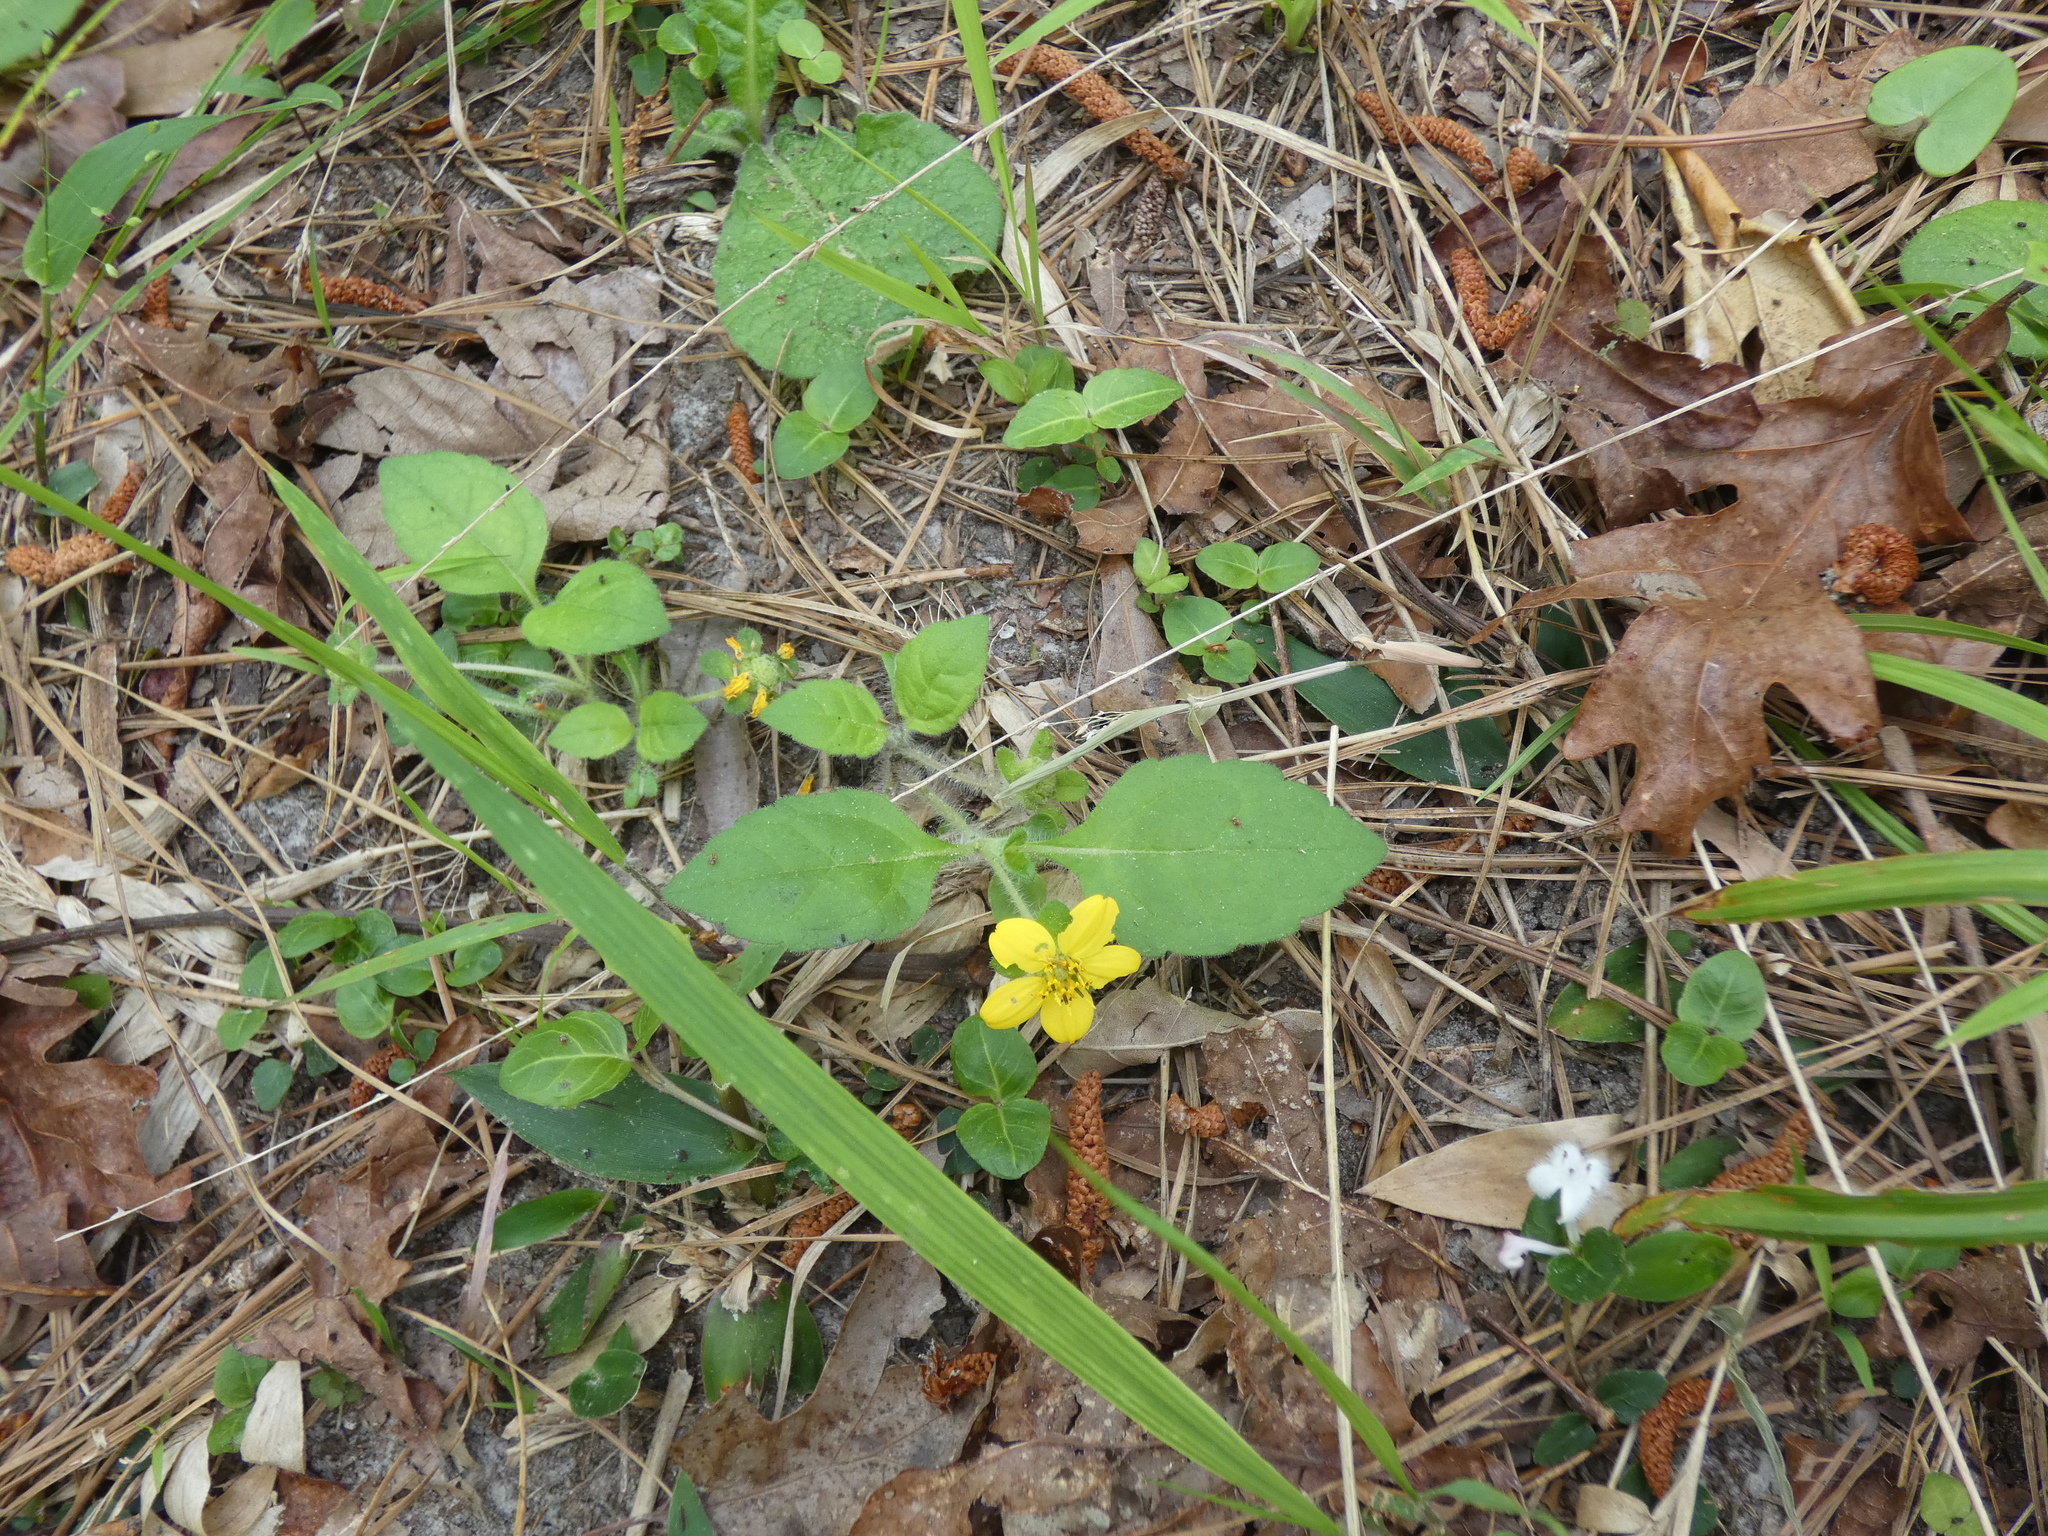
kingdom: Plantae
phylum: Tracheophyta
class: Magnoliopsida
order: Asterales
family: Asteraceae
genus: Chrysogonum
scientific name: Chrysogonum virginianum
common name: Golden-knee
